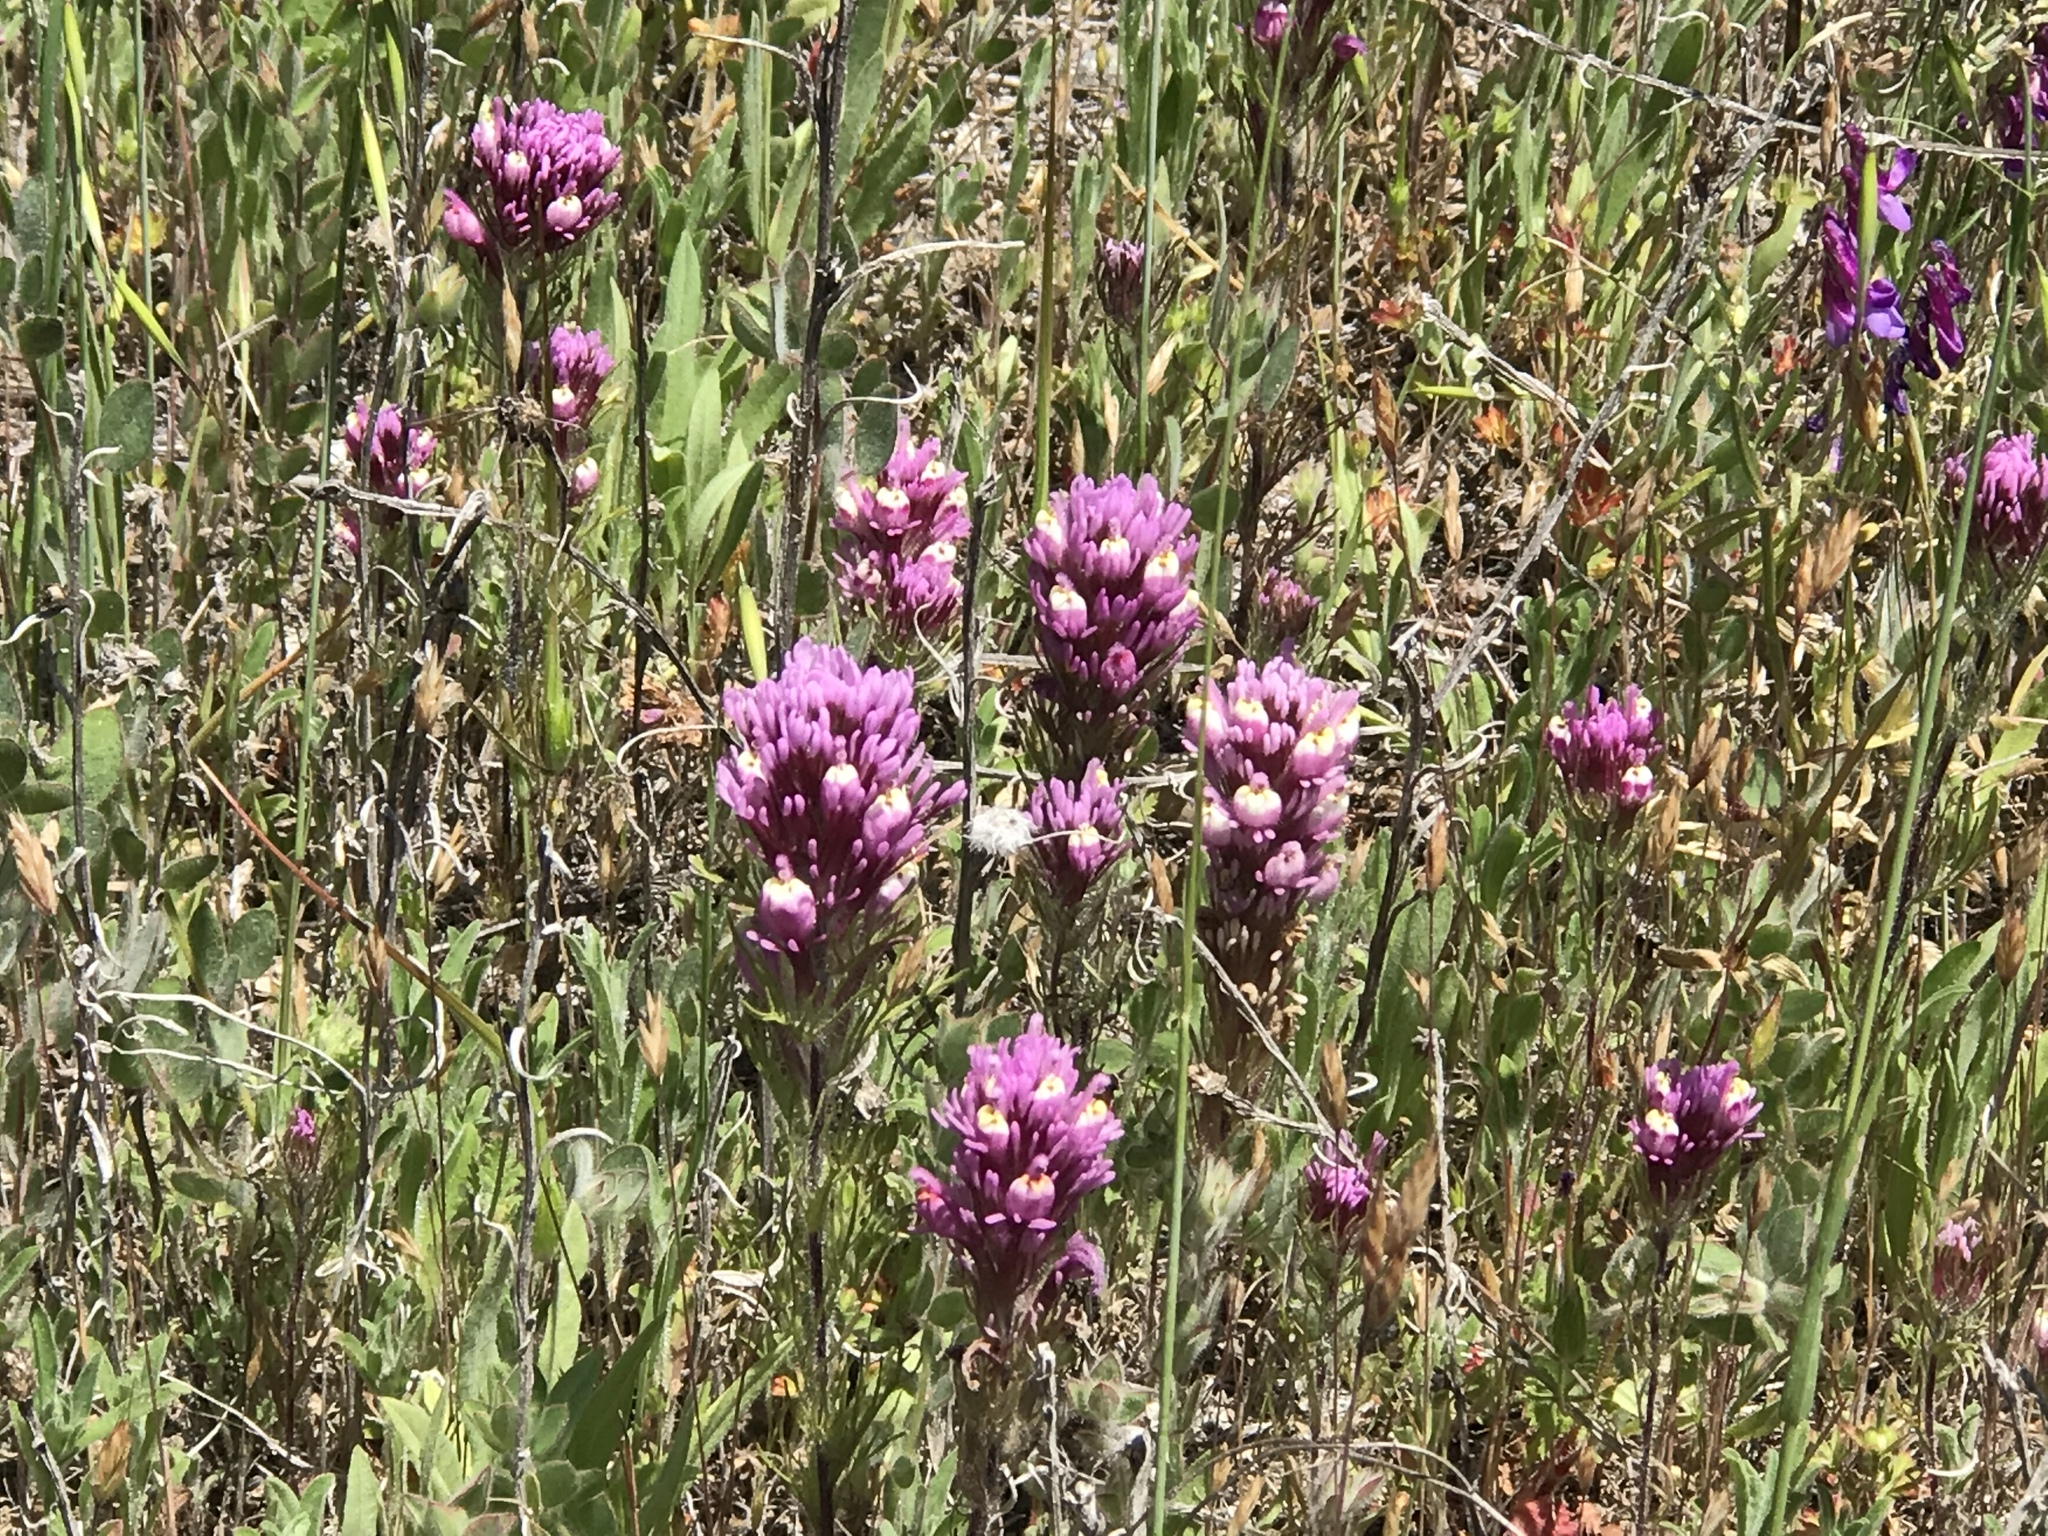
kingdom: Plantae
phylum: Tracheophyta
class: Magnoliopsida
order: Lamiales
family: Orobanchaceae
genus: Castilleja
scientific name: Castilleja exserta
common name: Purple owl-clover
